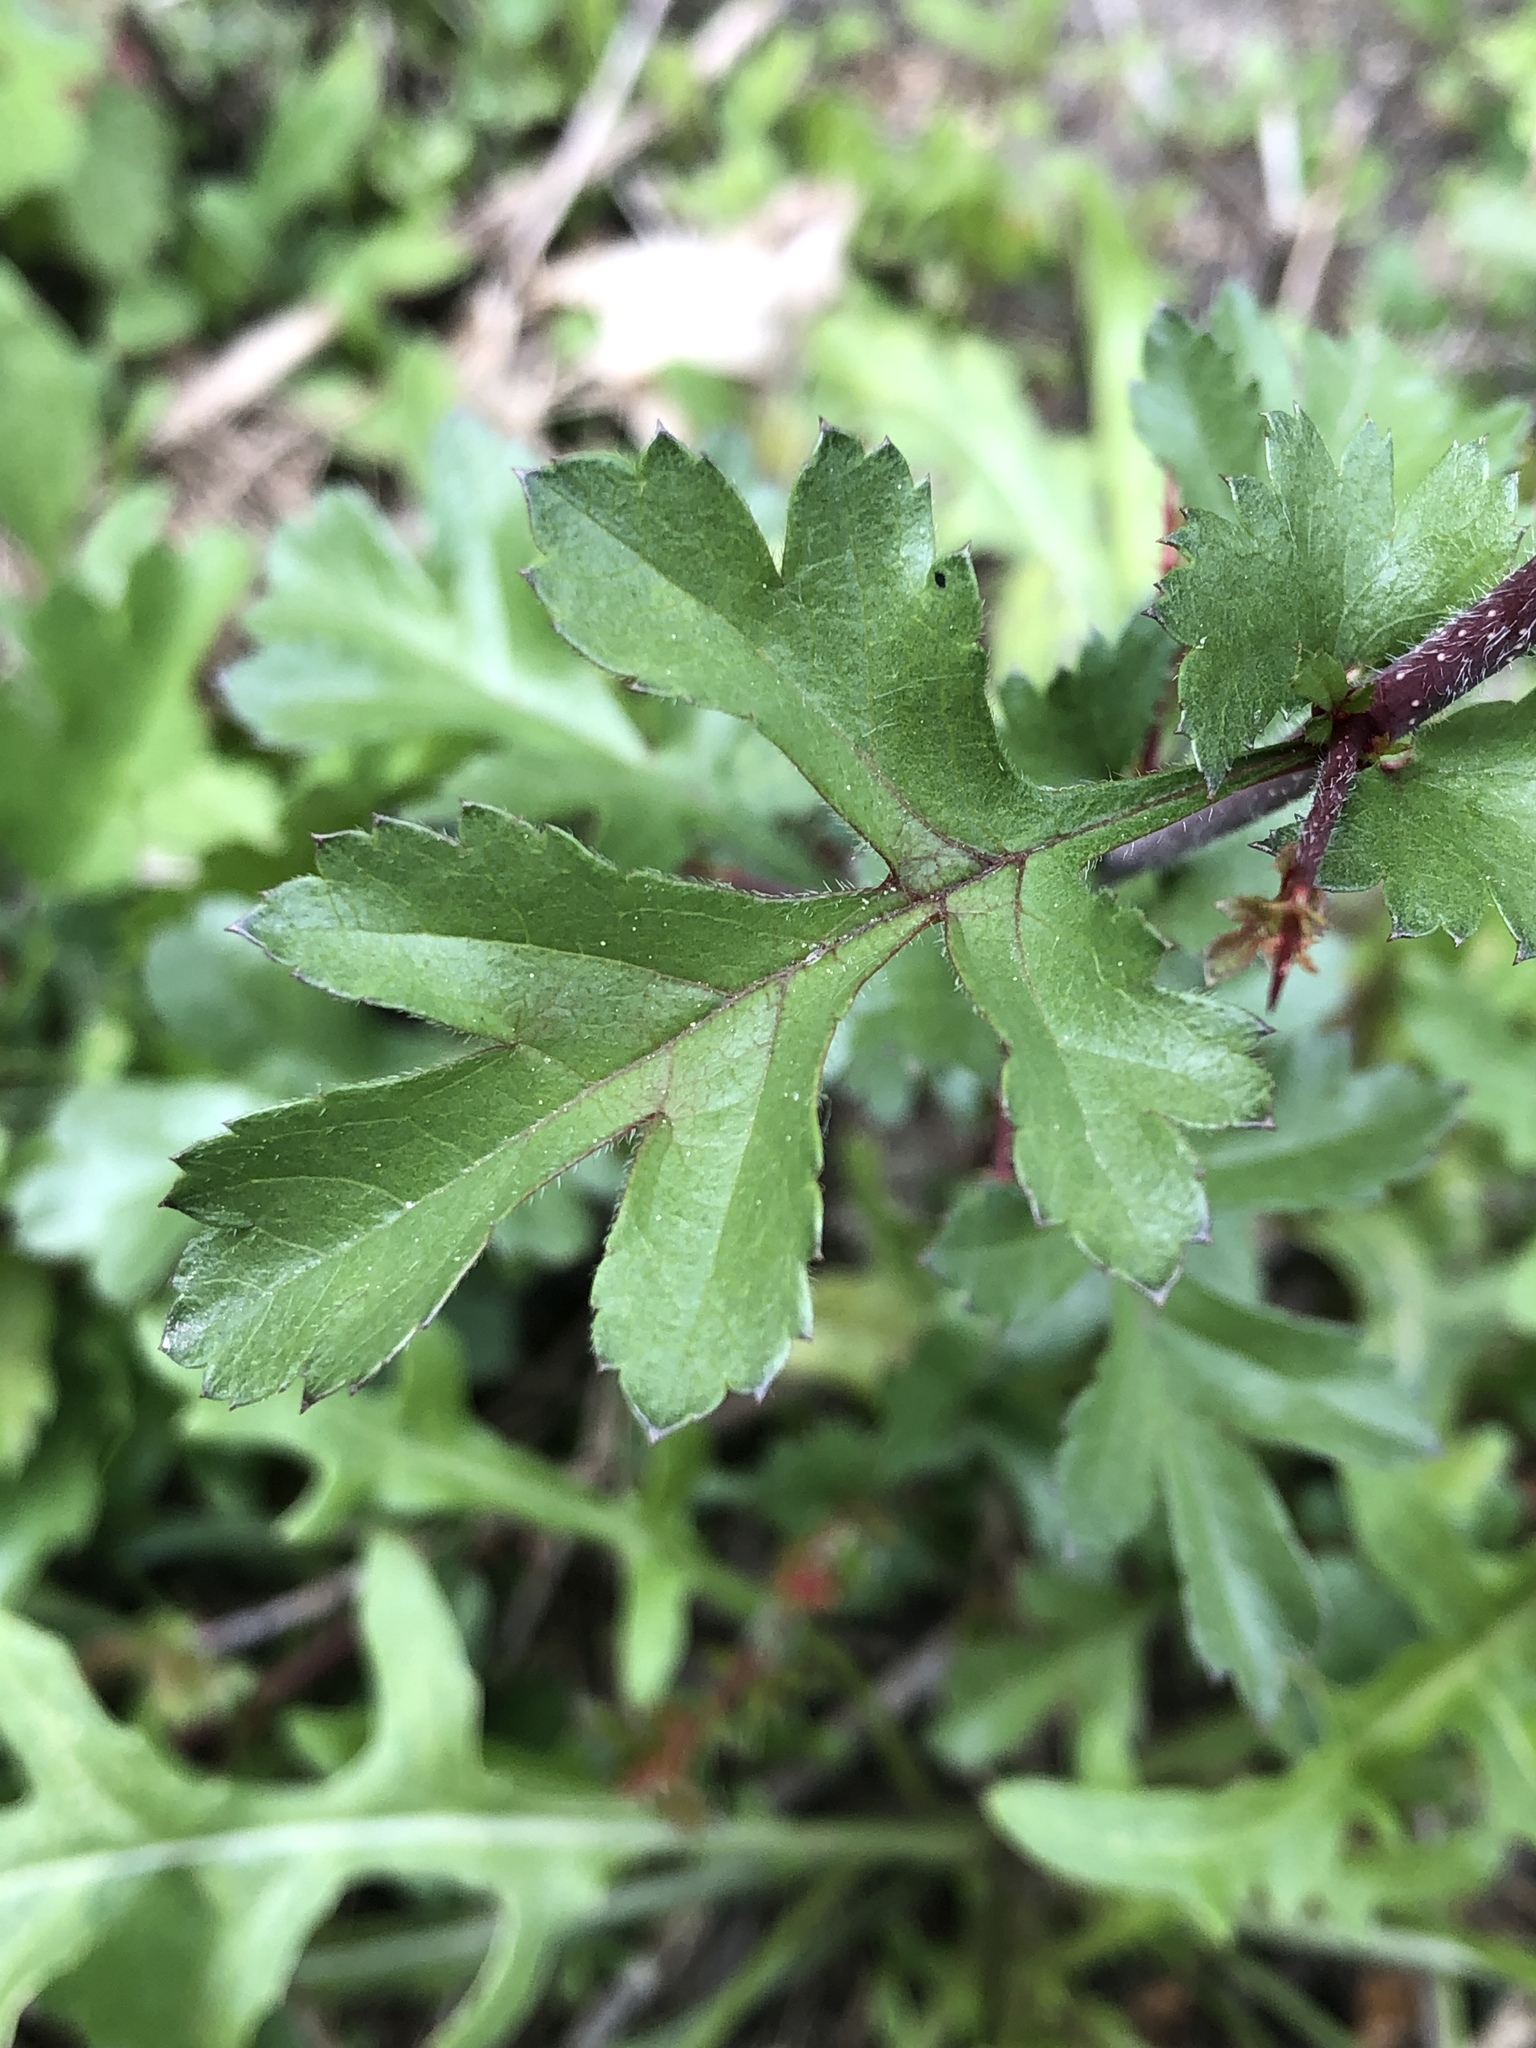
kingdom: Plantae
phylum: Tracheophyta
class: Magnoliopsida
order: Rosales
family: Rosaceae
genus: Crataegus
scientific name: Crataegus monogyna
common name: Hawthorn
